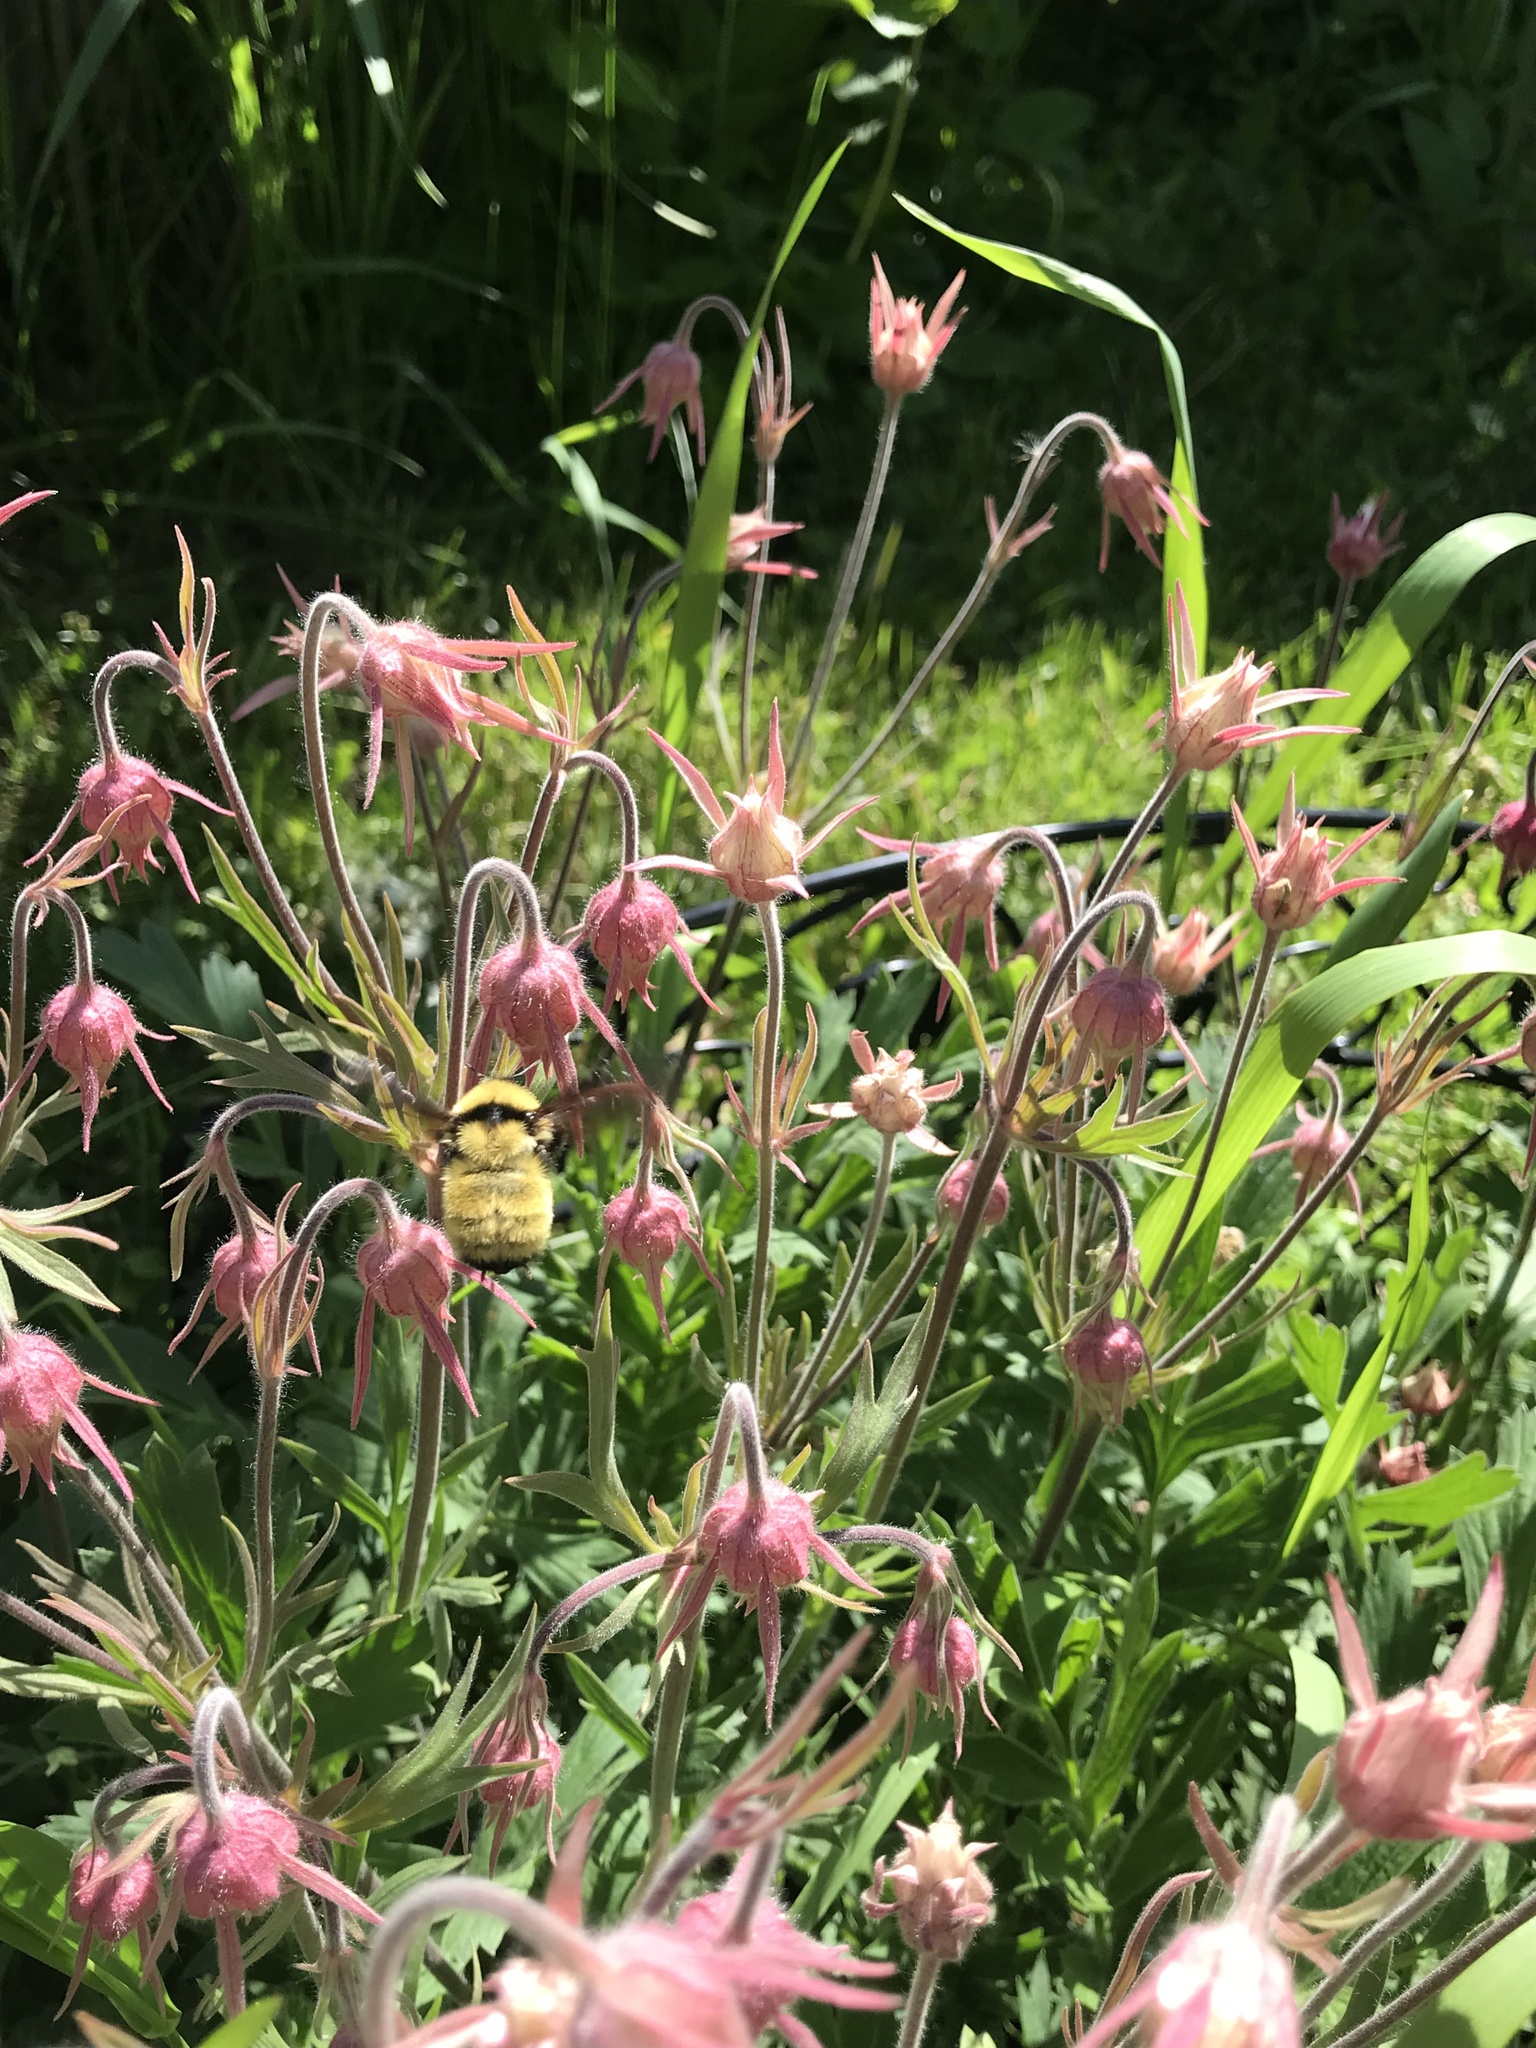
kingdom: Animalia
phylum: Arthropoda
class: Insecta
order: Hymenoptera
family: Apidae
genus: Bombus
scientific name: Bombus fervidus
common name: Yellow bumble bee
